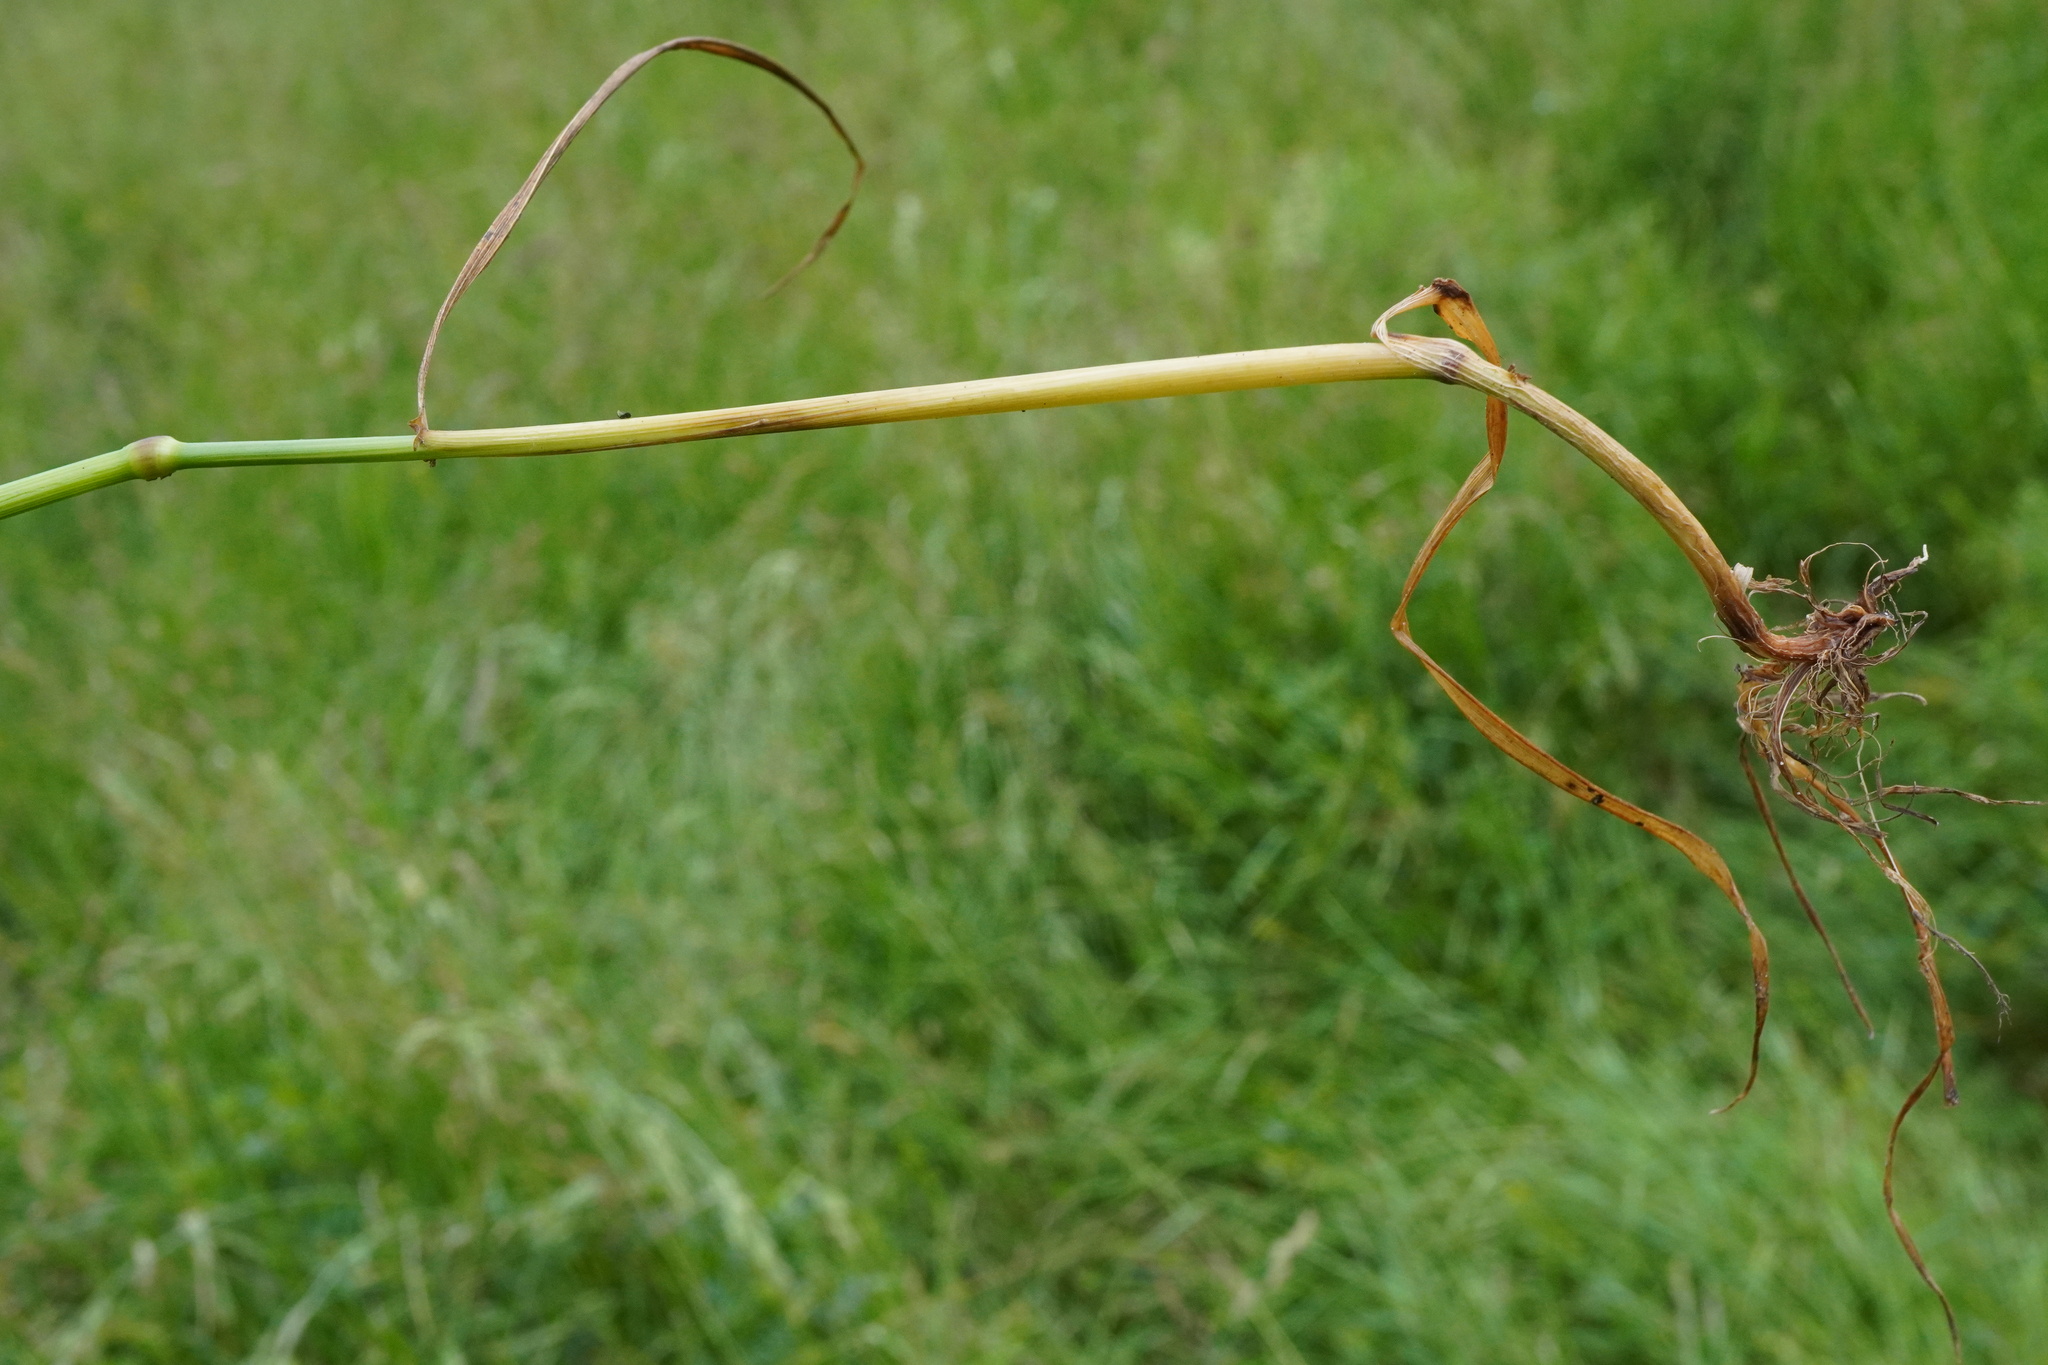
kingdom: Plantae
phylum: Tracheophyta
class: Liliopsida
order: Poales
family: Poaceae
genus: Lolium
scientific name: Lolium pratense
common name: Dover grass
